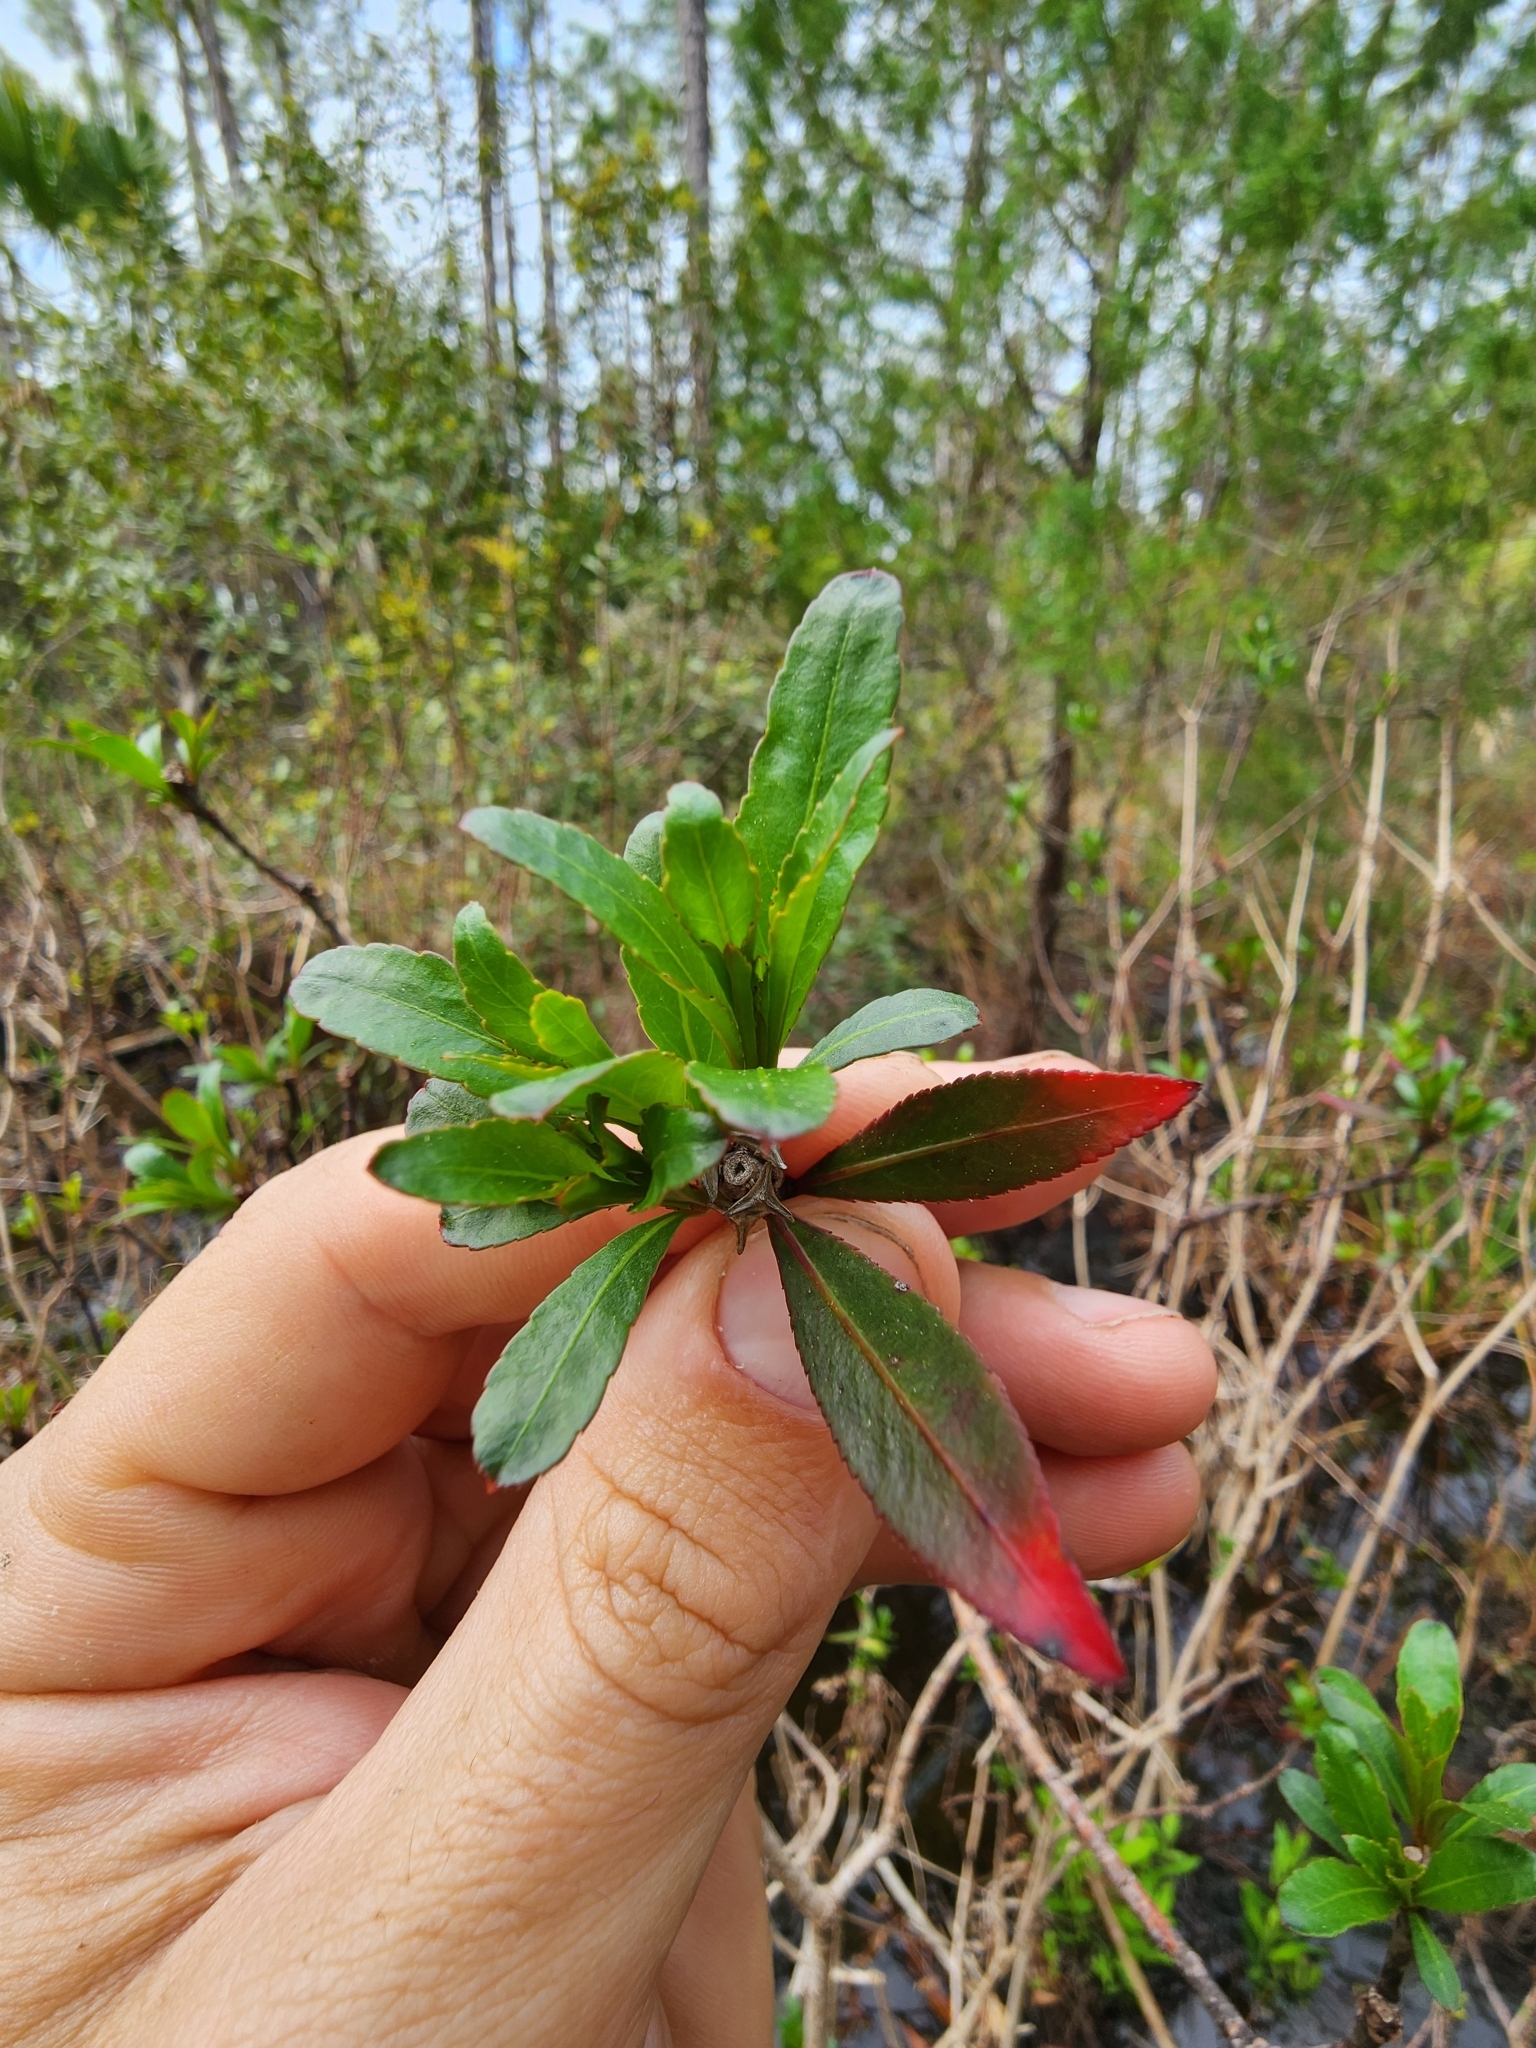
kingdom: Plantae
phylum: Tracheophyta
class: Magnoliopsida
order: Malpighiales
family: Euphorbiaceae
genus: Stillingia
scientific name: Stillingia aquatica
